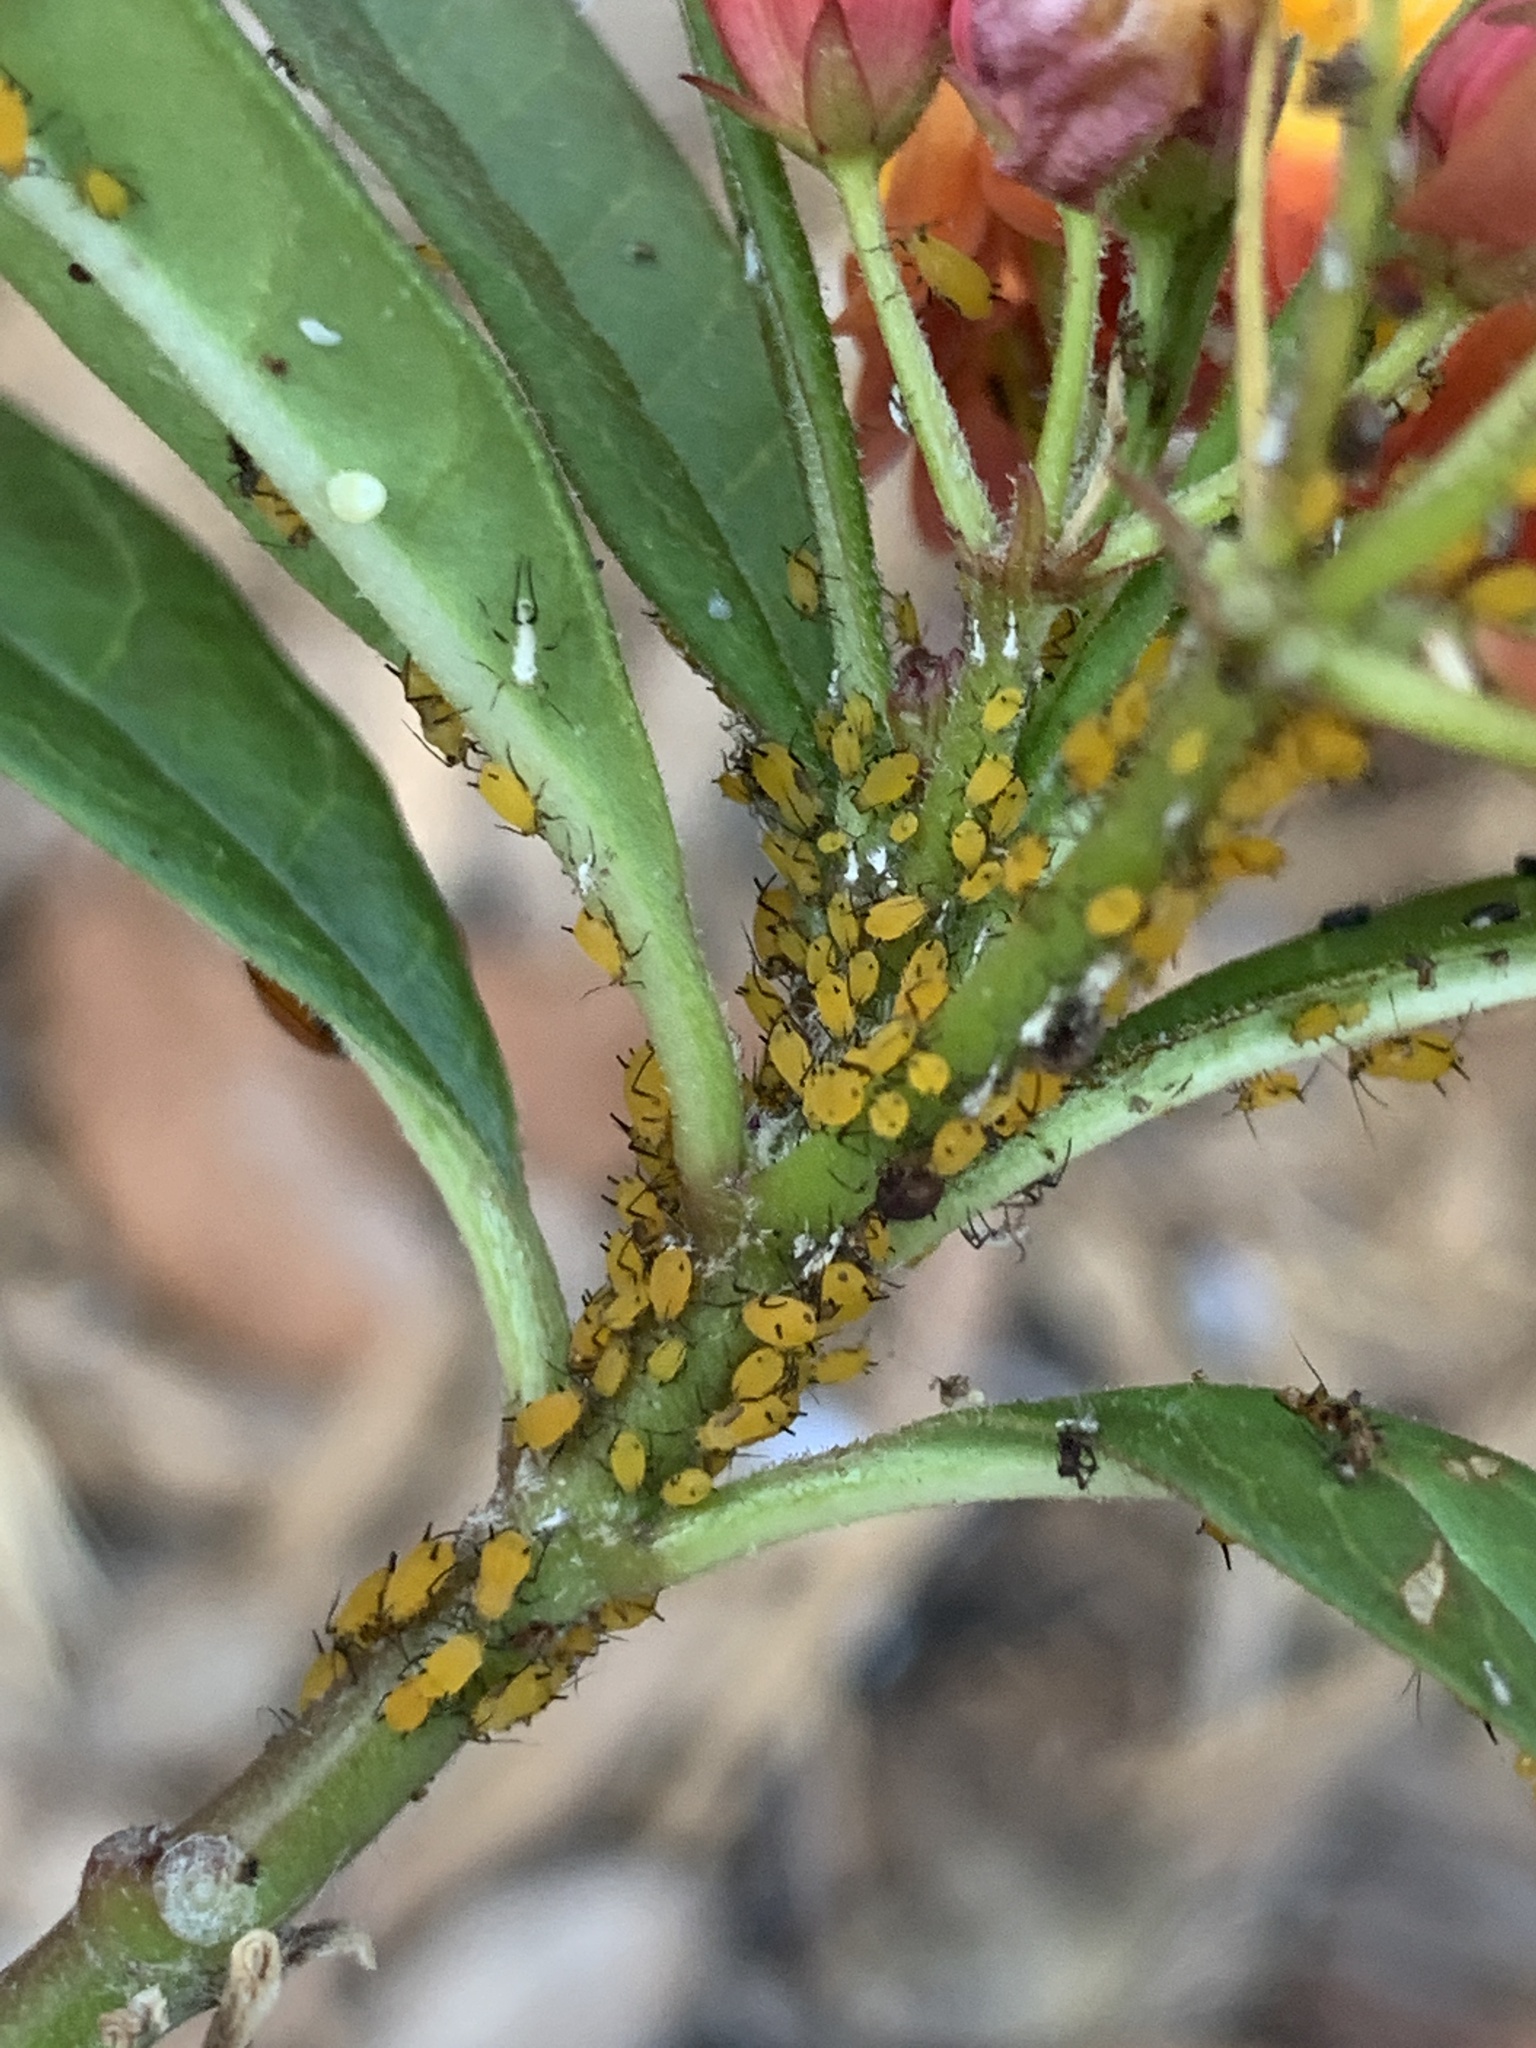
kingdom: Animalia
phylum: Arthropoda
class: Insecta
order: Hemiptera
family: Aphididae
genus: Aphis
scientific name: Aphis nerii
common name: Oleander aphid
